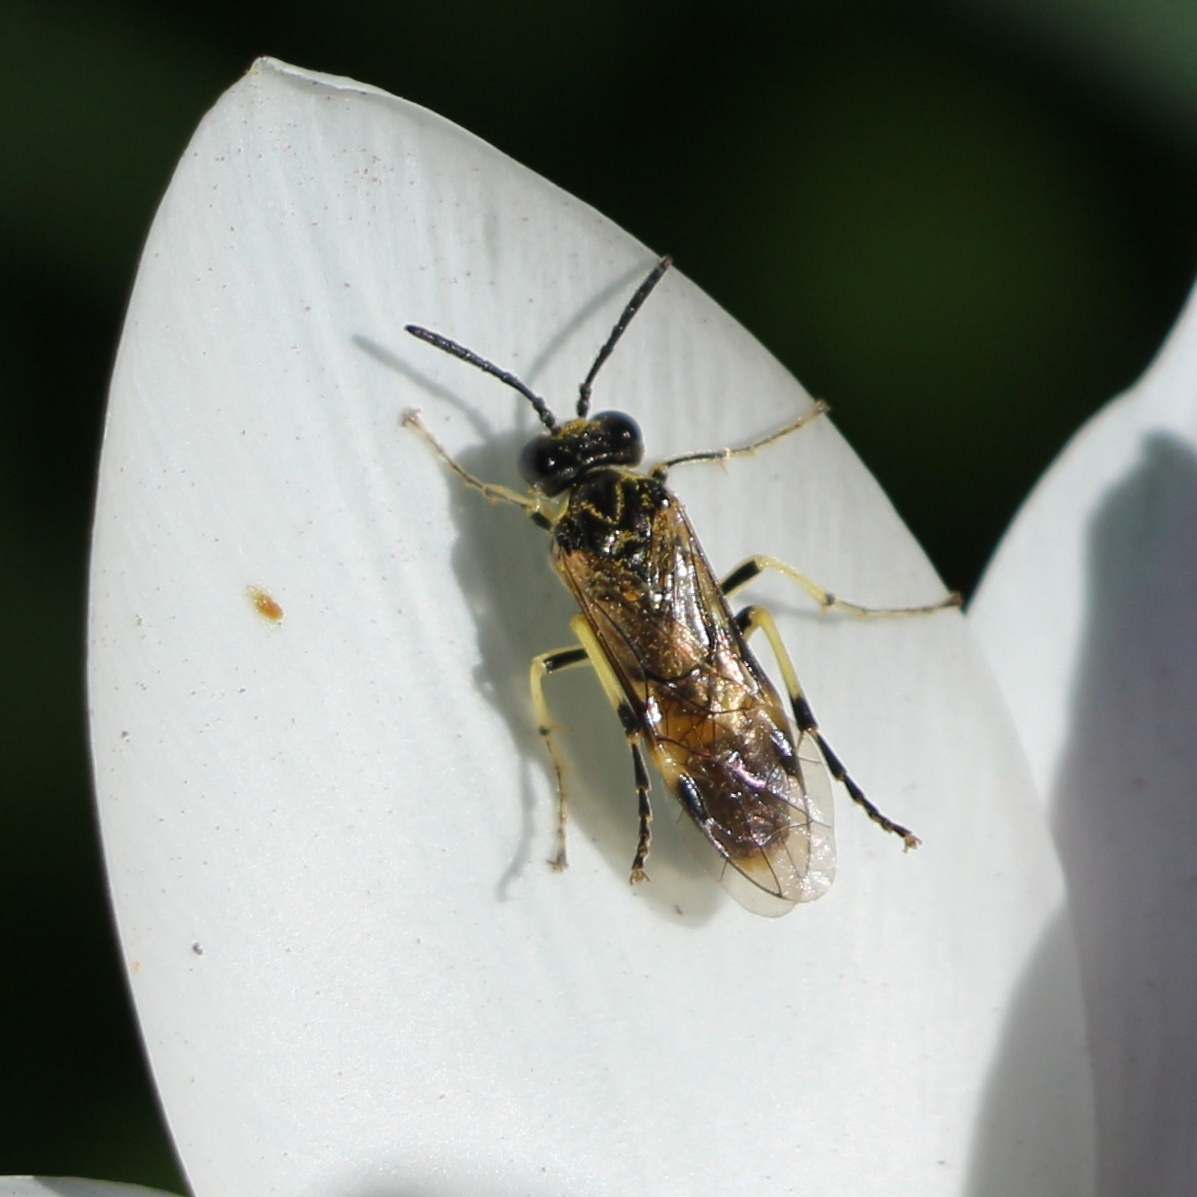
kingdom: Animalia
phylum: Arthropoda
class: Insecta
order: Hymenoptera
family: Tenthredinidae
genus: Tenthredo
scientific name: Tenthredo talyshensis
